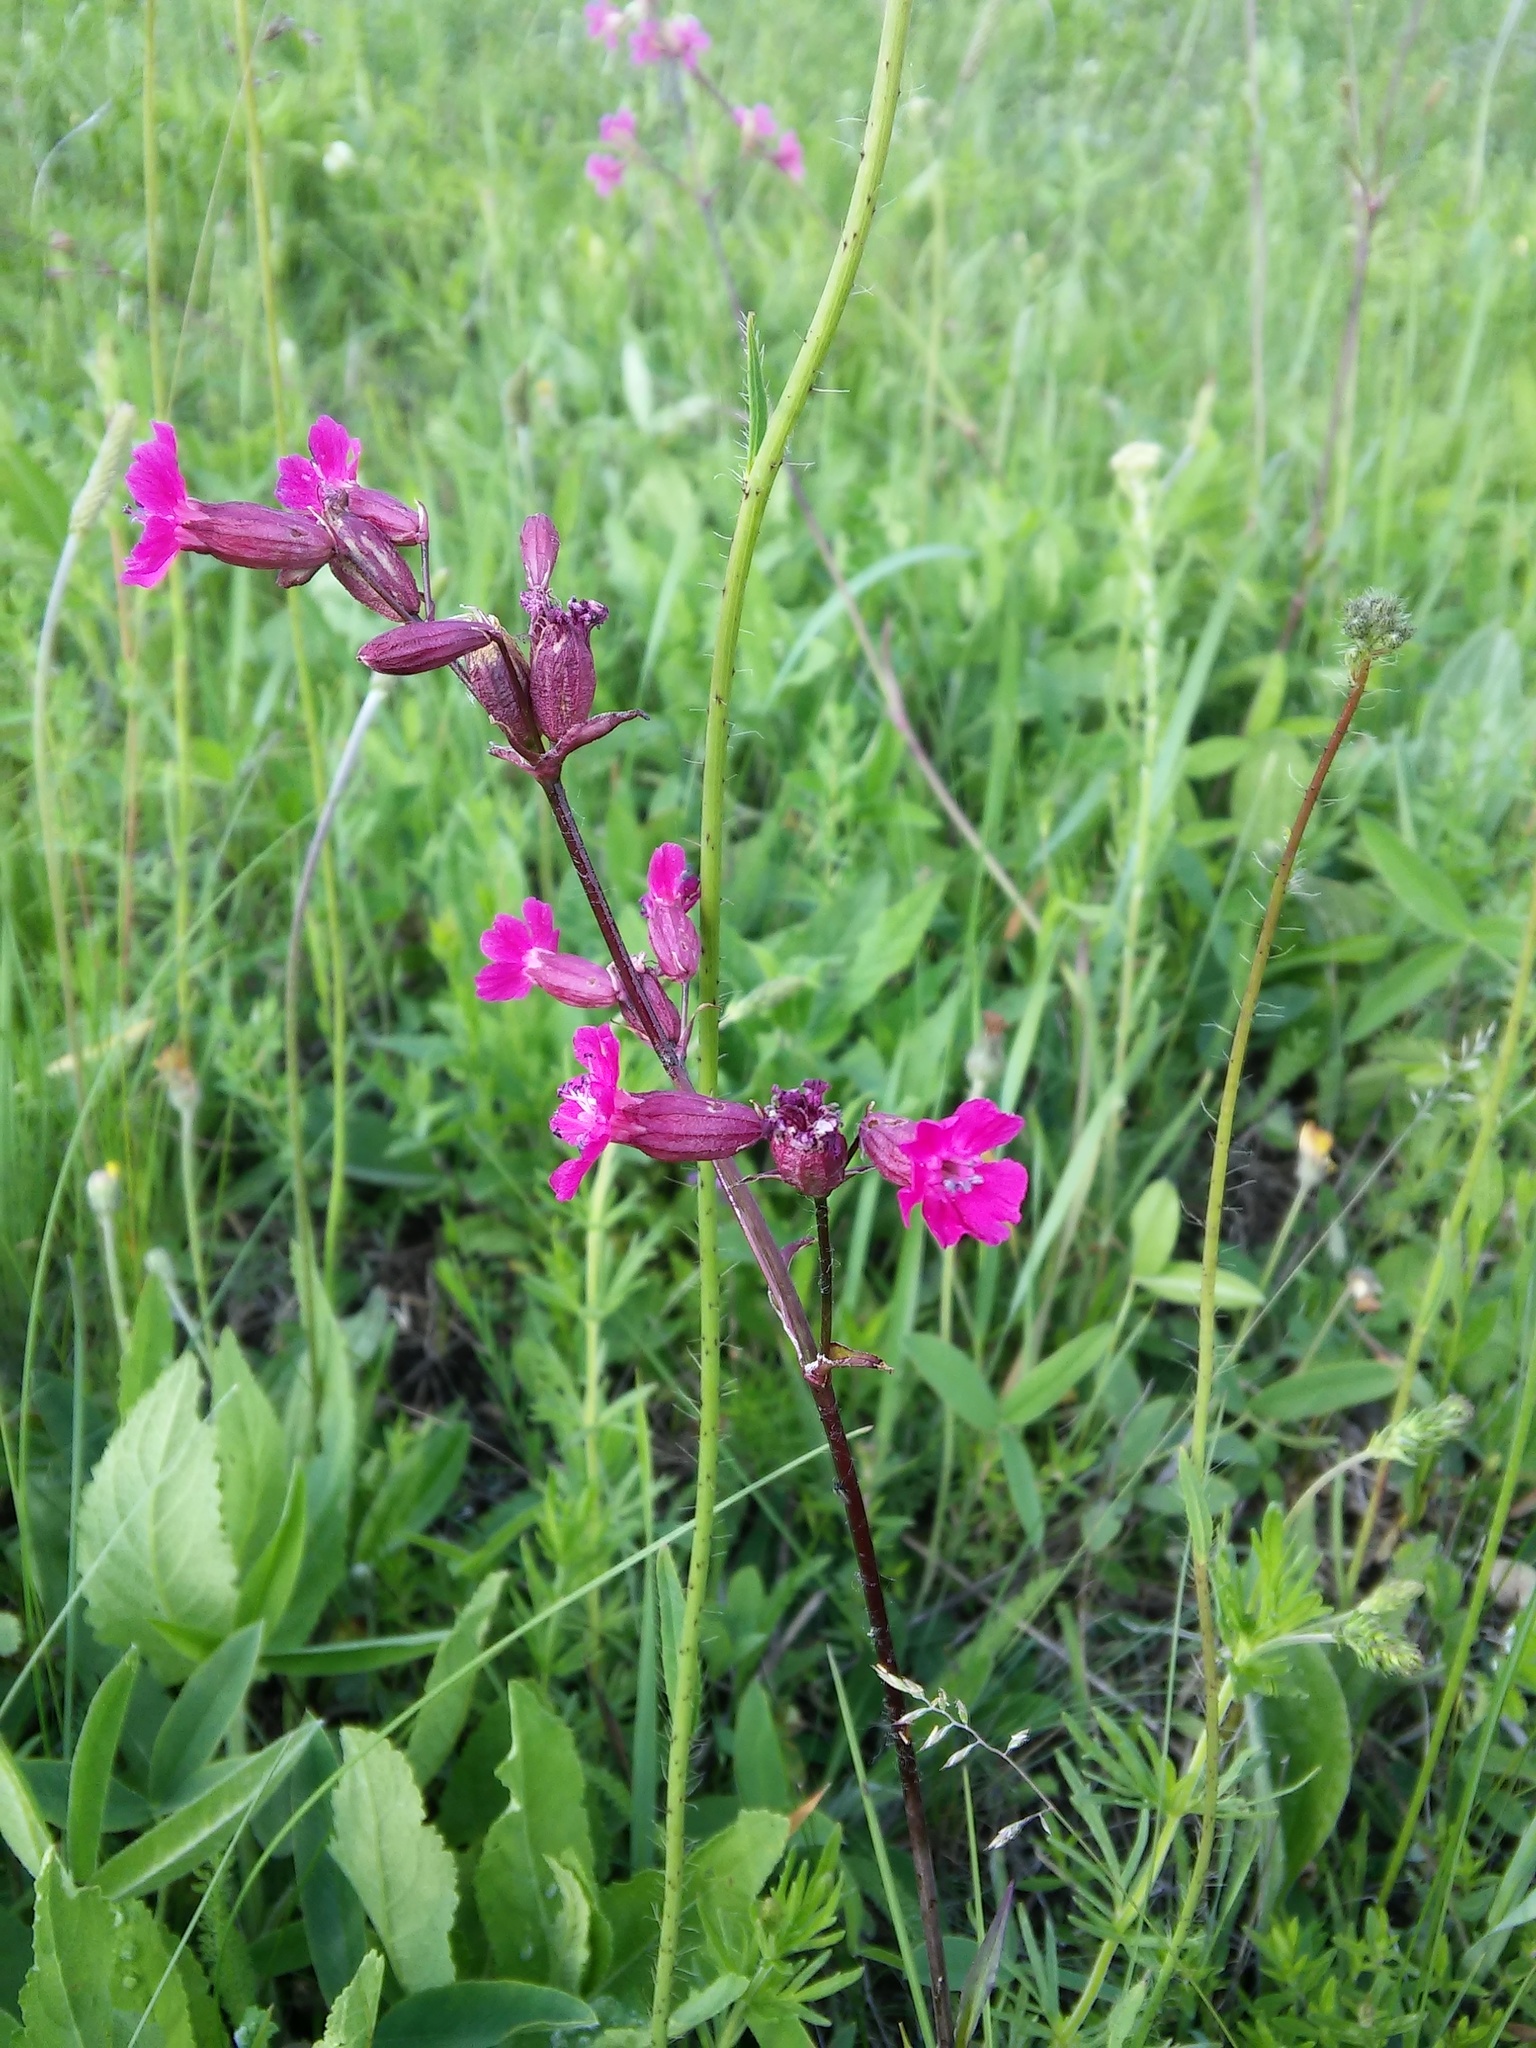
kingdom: Plantae
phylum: Tracheophyta
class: Magnoliopsida
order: Caryophyllales
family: Caryophyllaceae
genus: Viscaria
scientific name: Viscaria vulgaris
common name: Clammy campion
